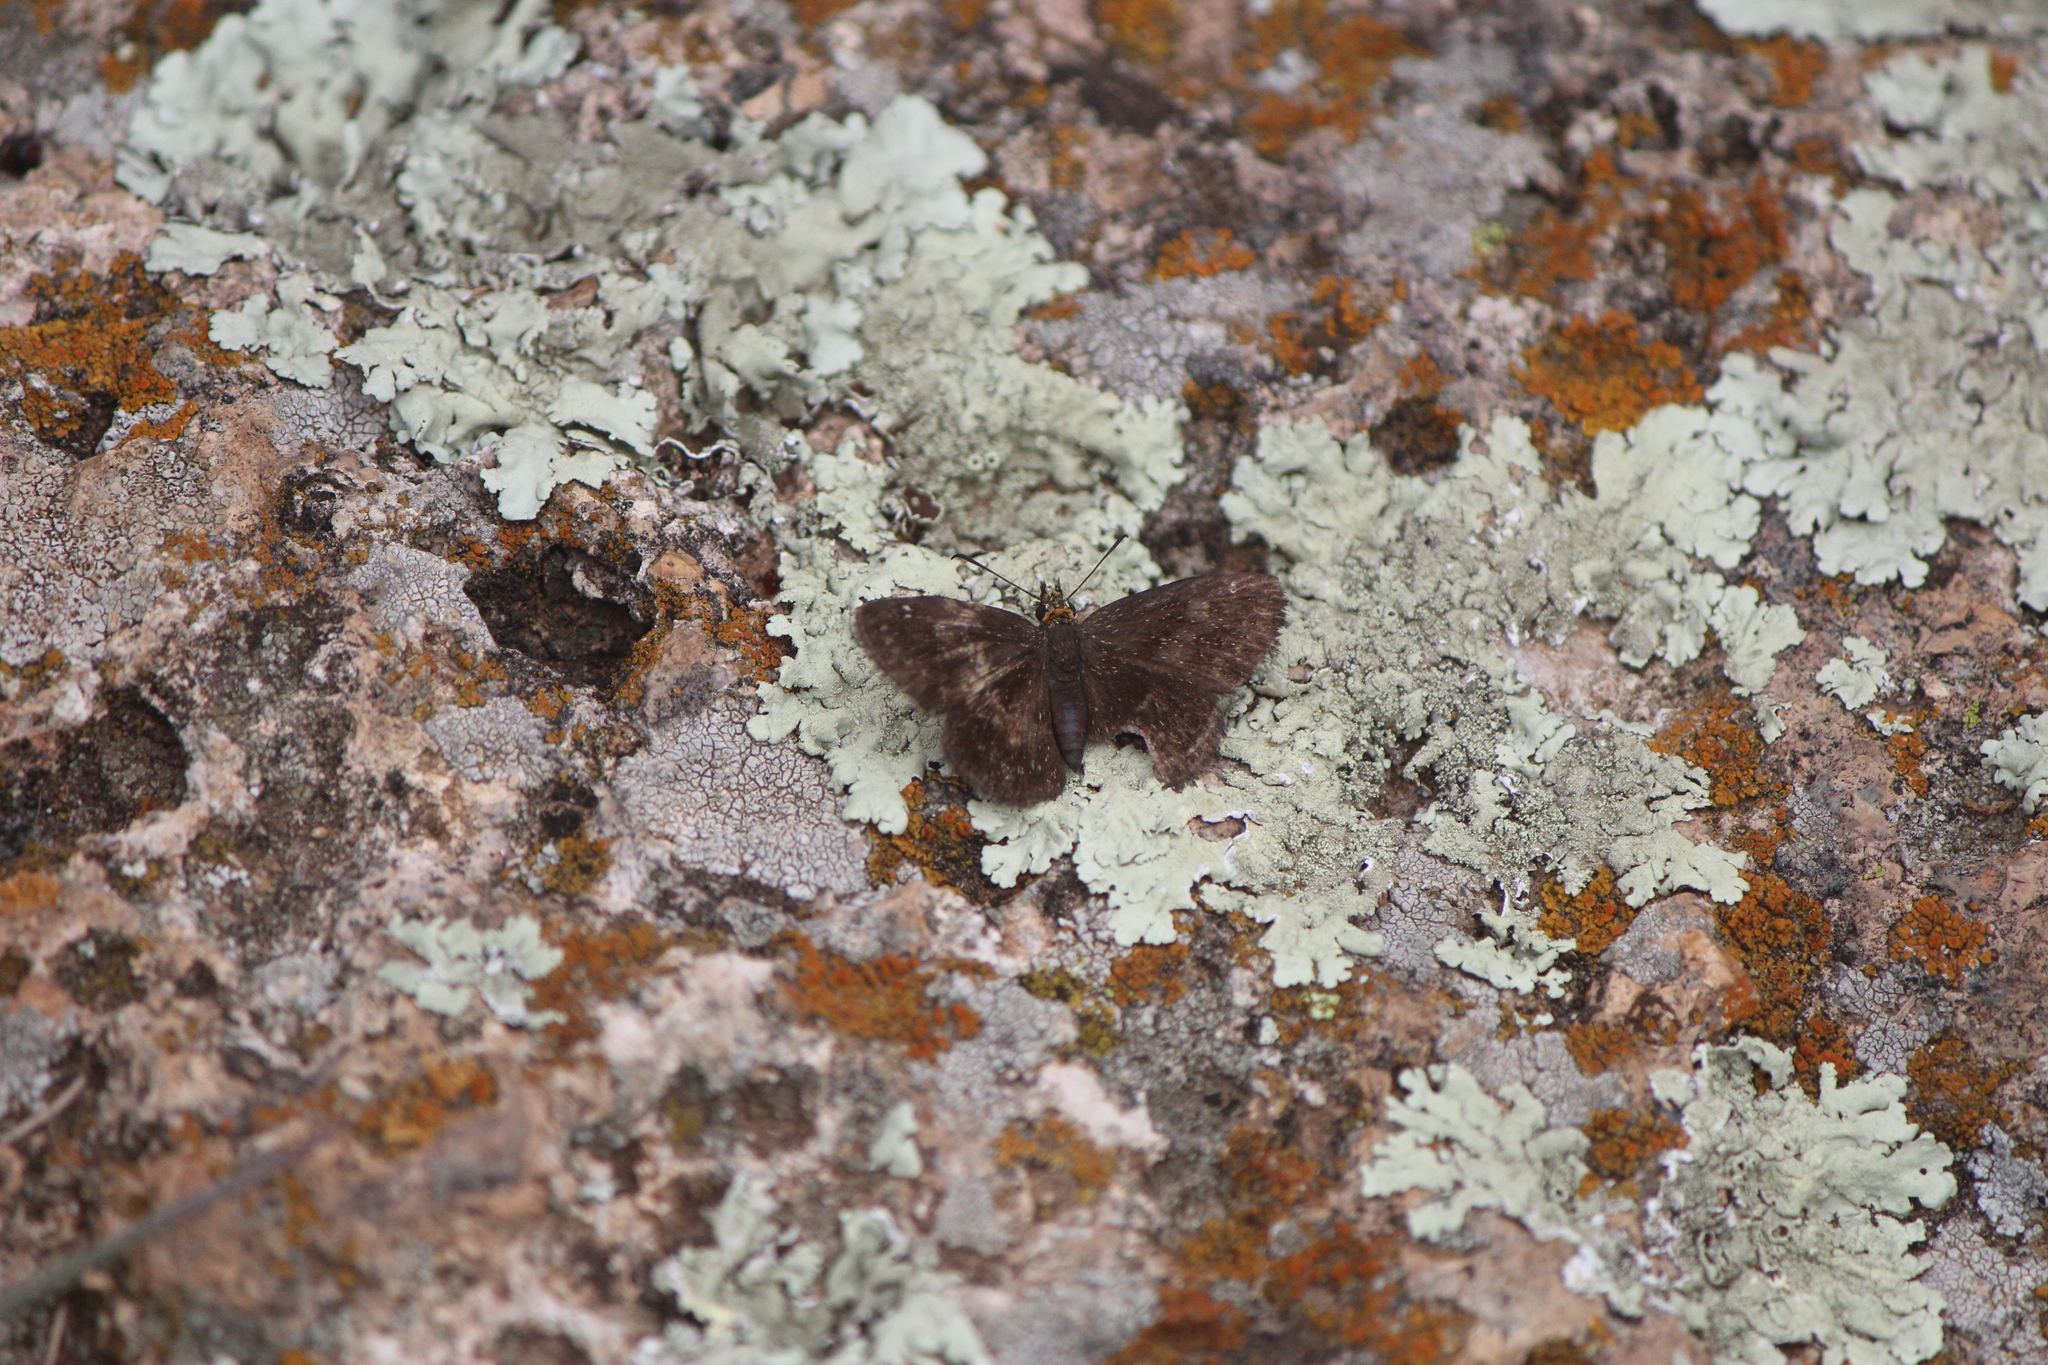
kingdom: Animalia
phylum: Arthropoda
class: Insecta
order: Lepidoptera
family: Hesperiidae
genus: Staphylus
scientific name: Staphylus ceos
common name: Golden-headed scallopwing
